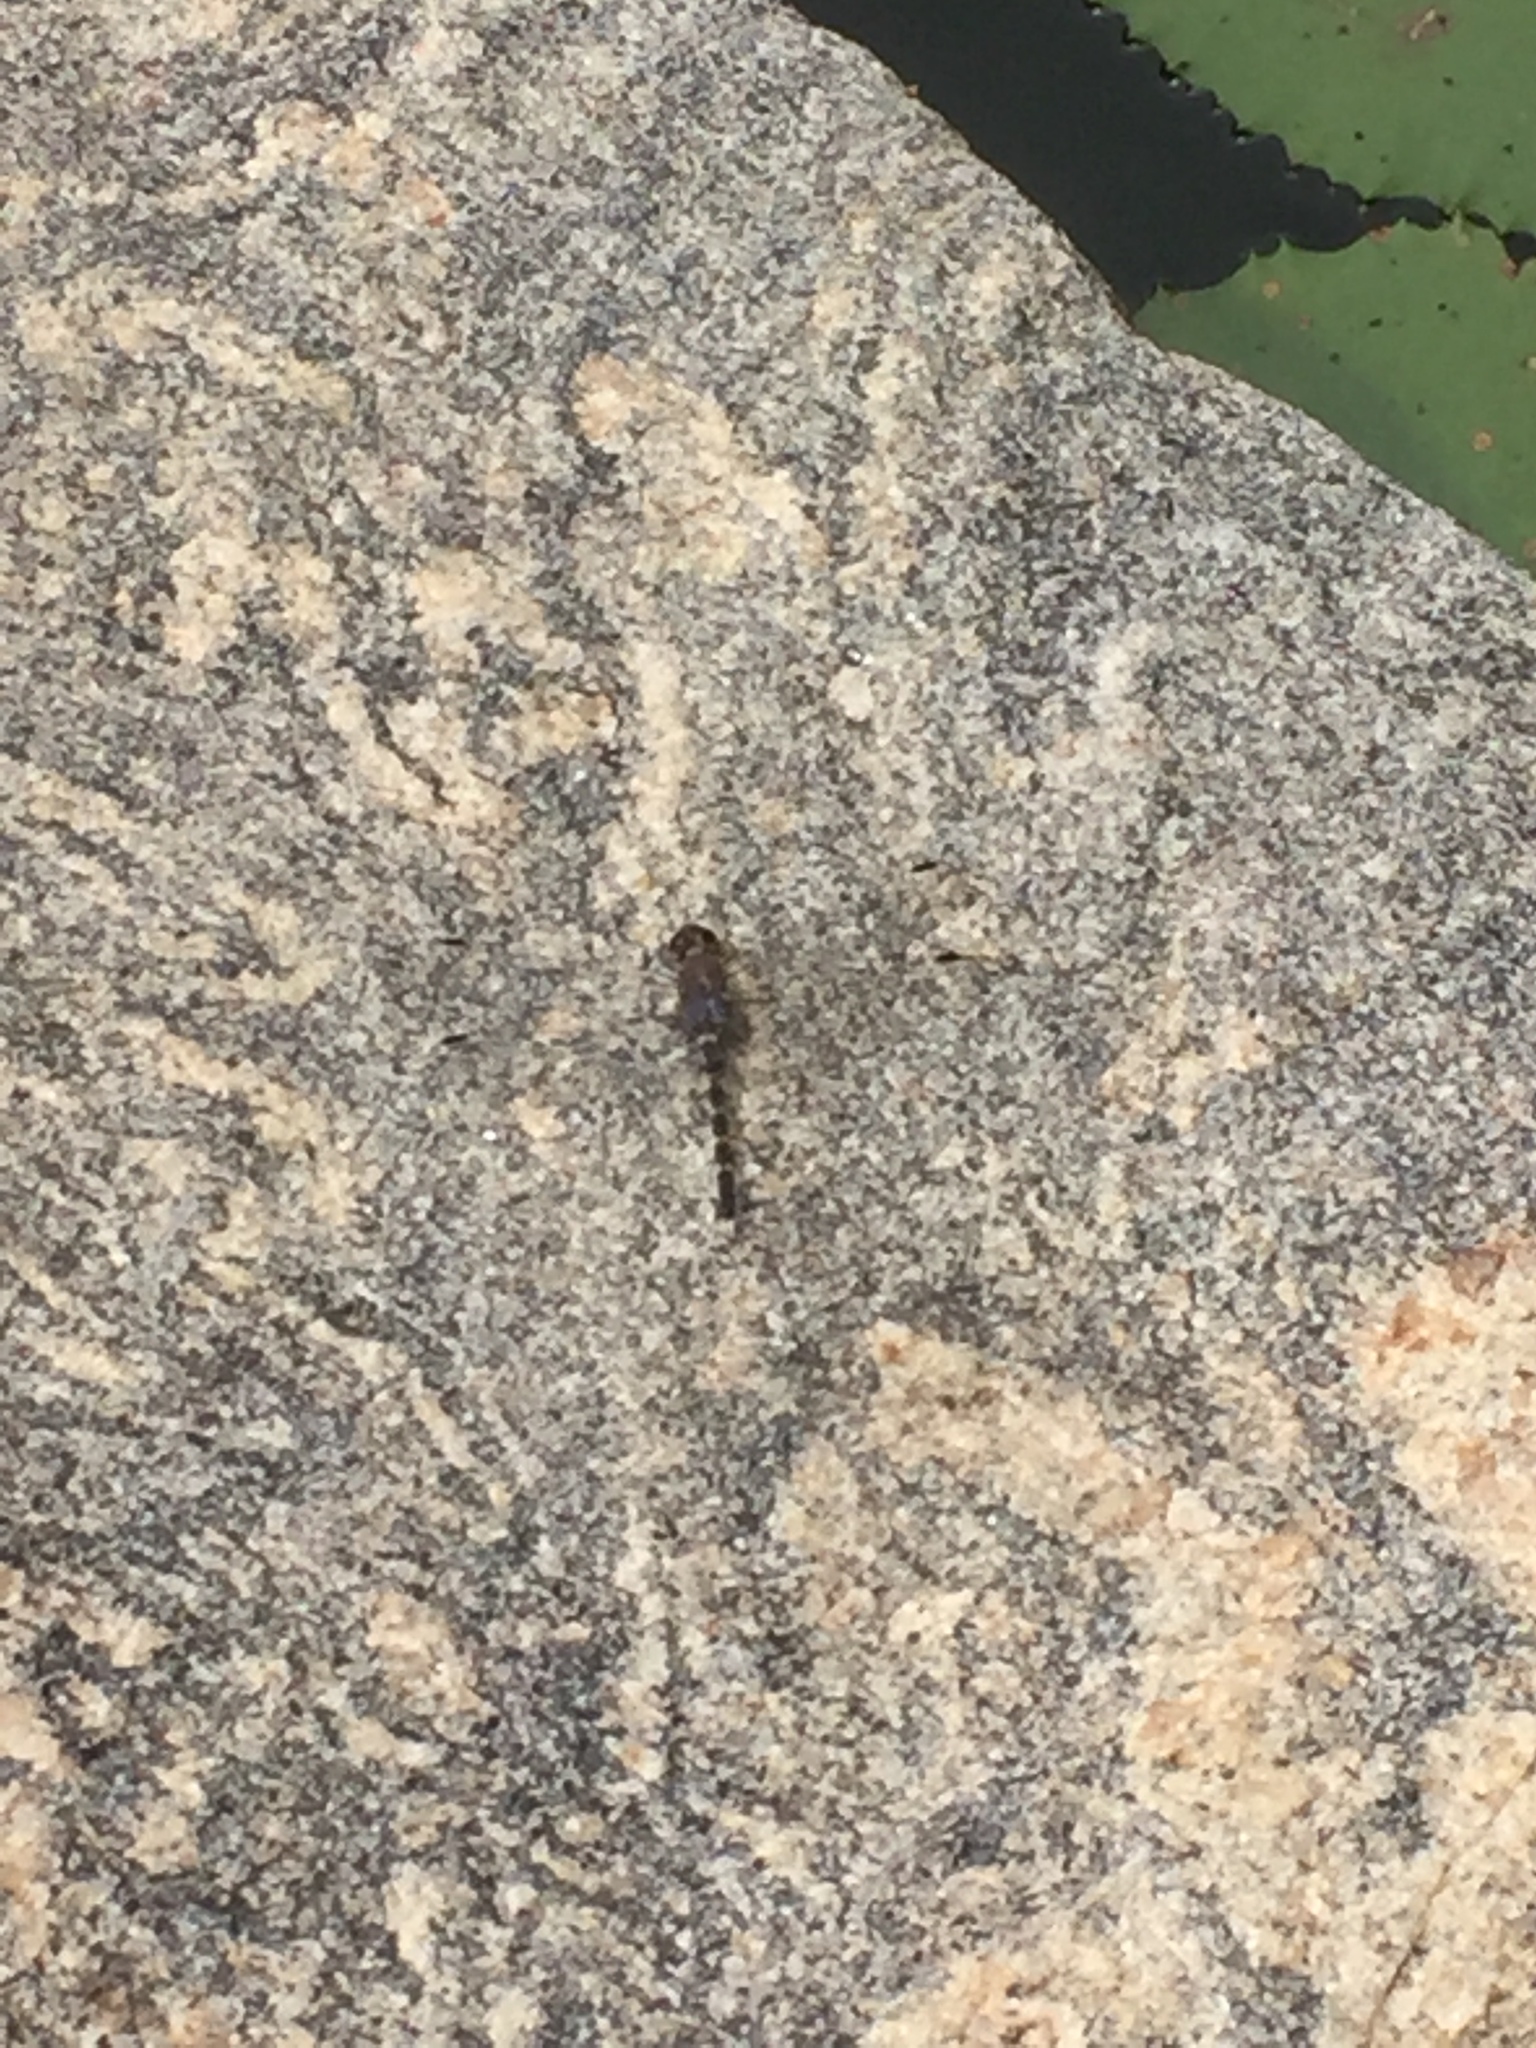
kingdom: Animalia
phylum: Arthropoda
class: Insecta
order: Odonata
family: Libellulidae
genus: Bradinopyga
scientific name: Bradinopyga geminata
